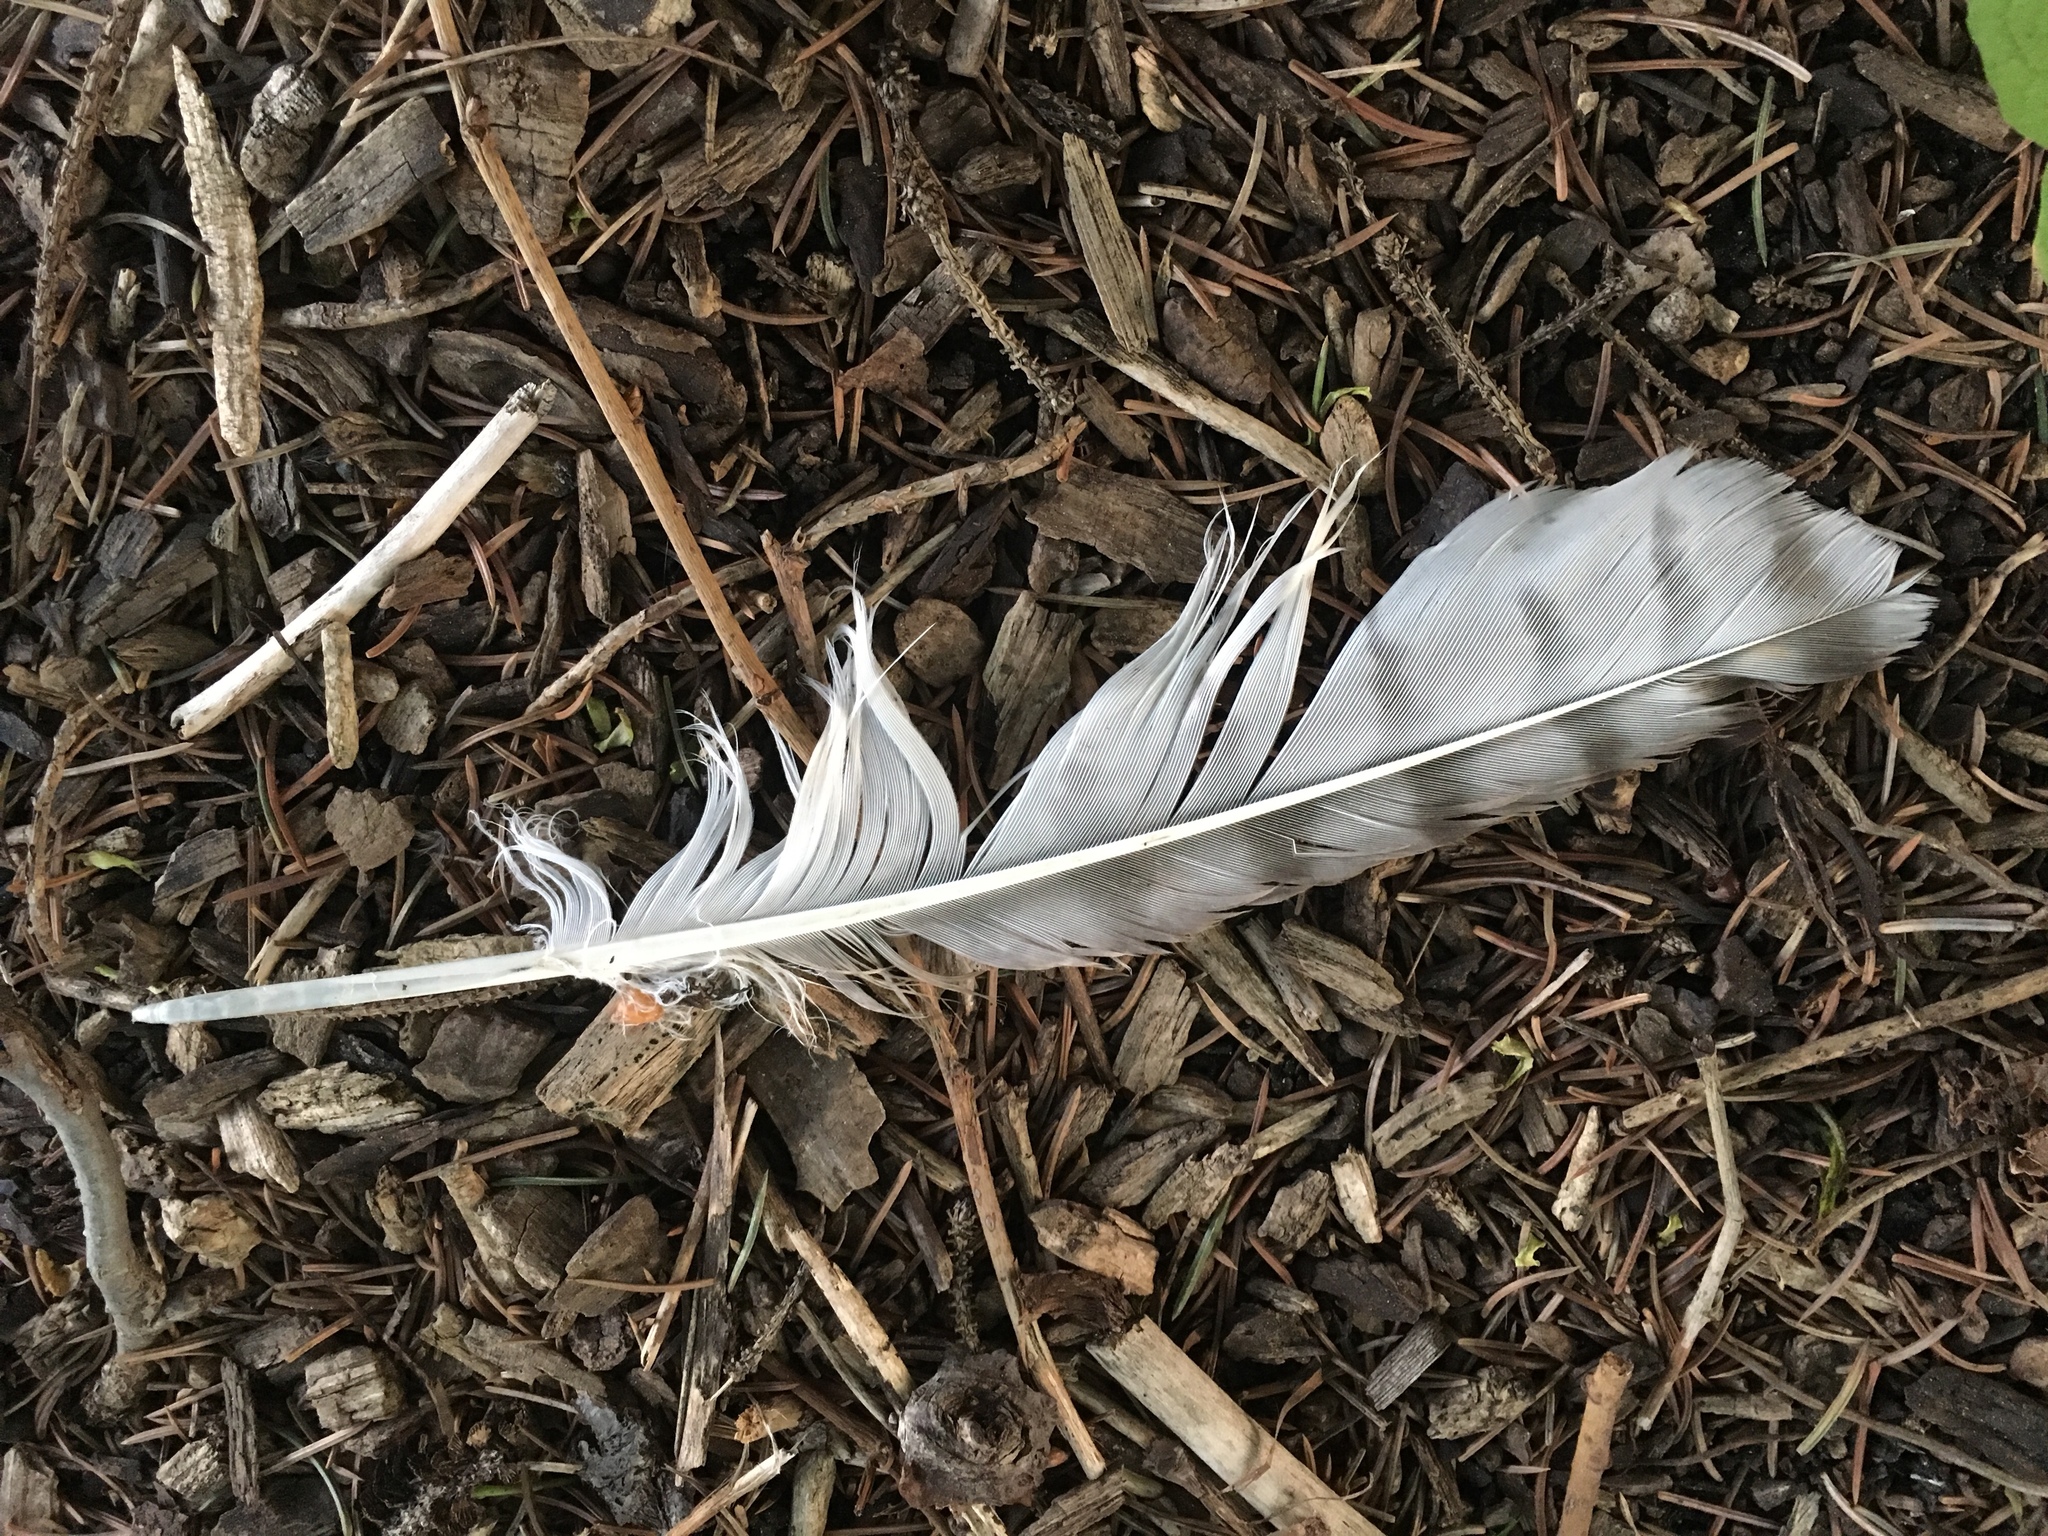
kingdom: Animalia
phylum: Chordata
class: Aves
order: Accipitriformes
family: Accipitridae
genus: Buteo
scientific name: Buteo jamaicensis
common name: Red-tailed hawk
